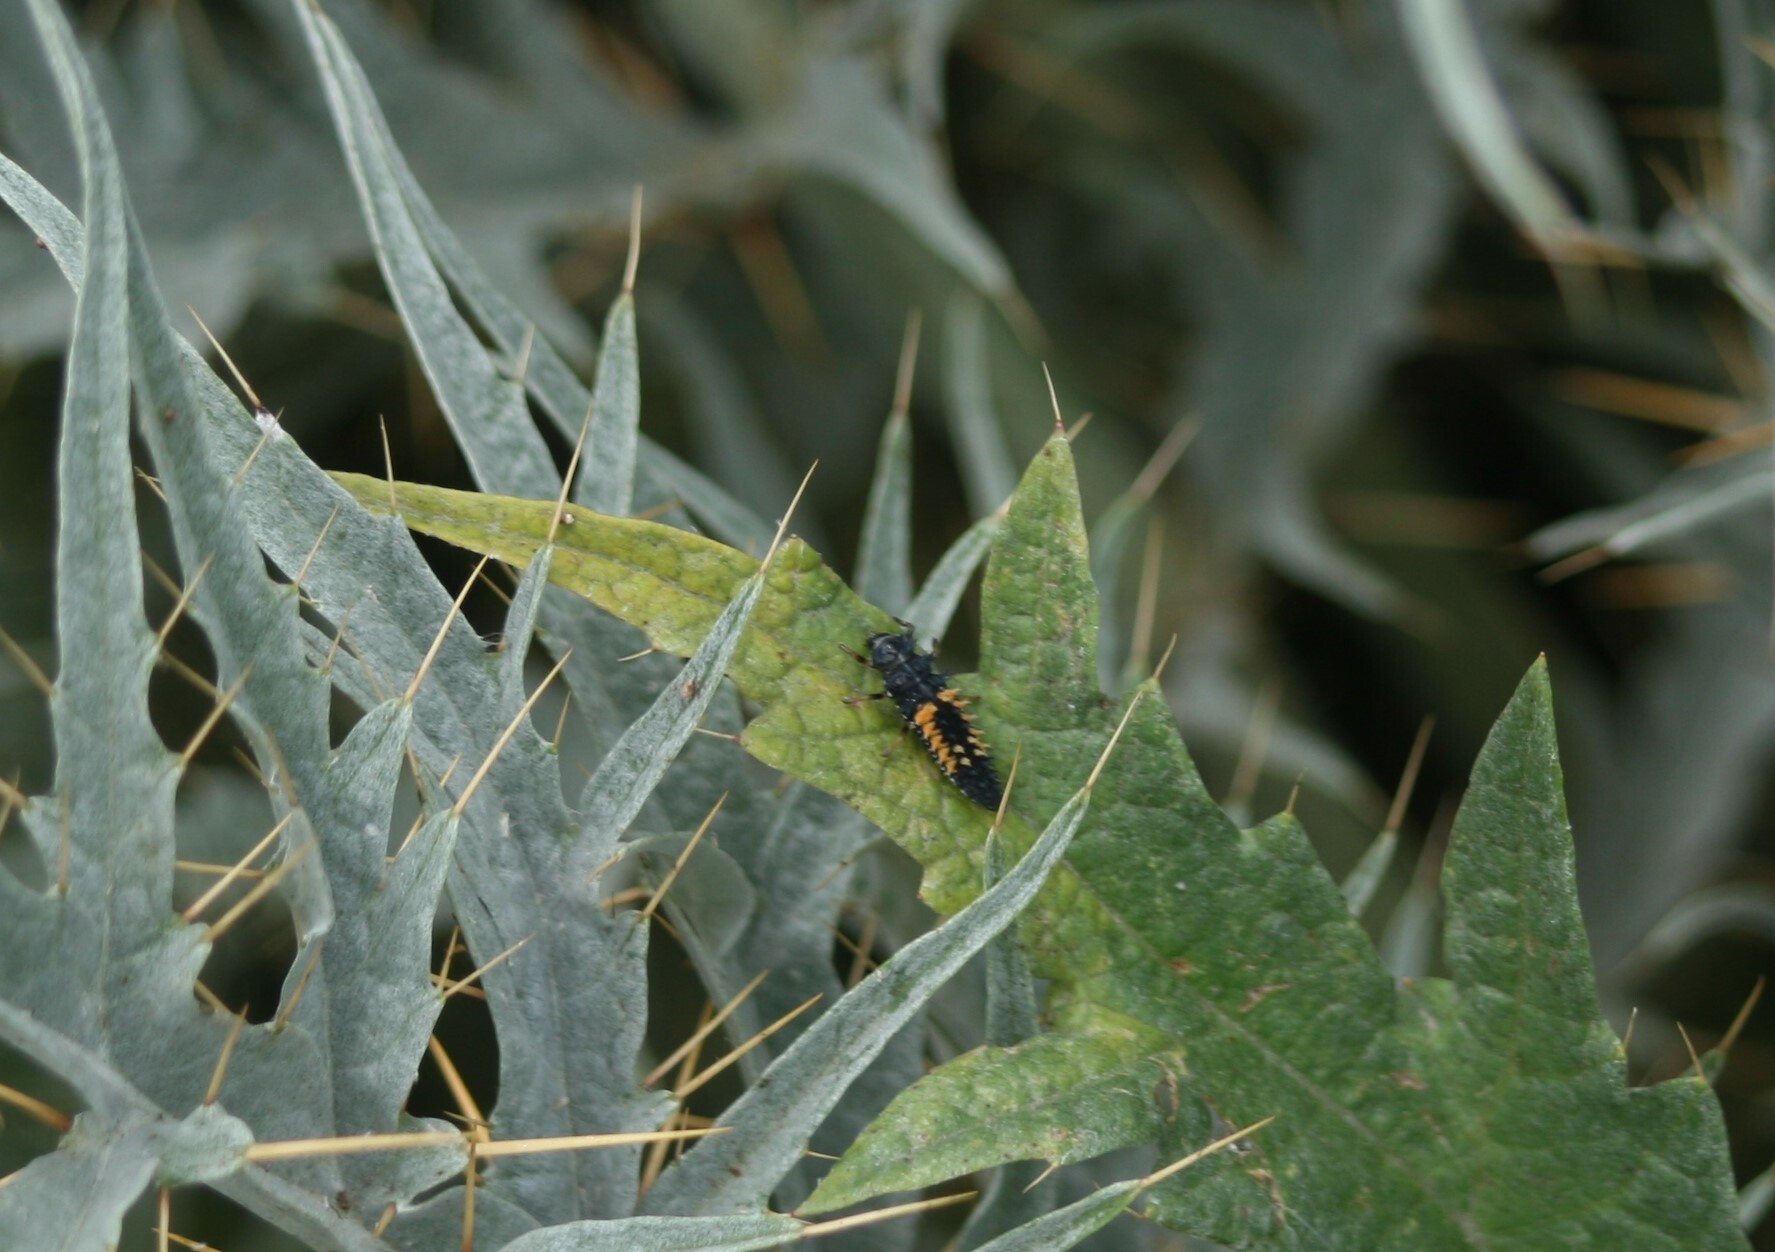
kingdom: Animalia
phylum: Arthropoda
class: Insecta
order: Coleoptera
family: Coccinellidae
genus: Harmonia
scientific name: Harmonia axyridis
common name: Harlequin ladybird
